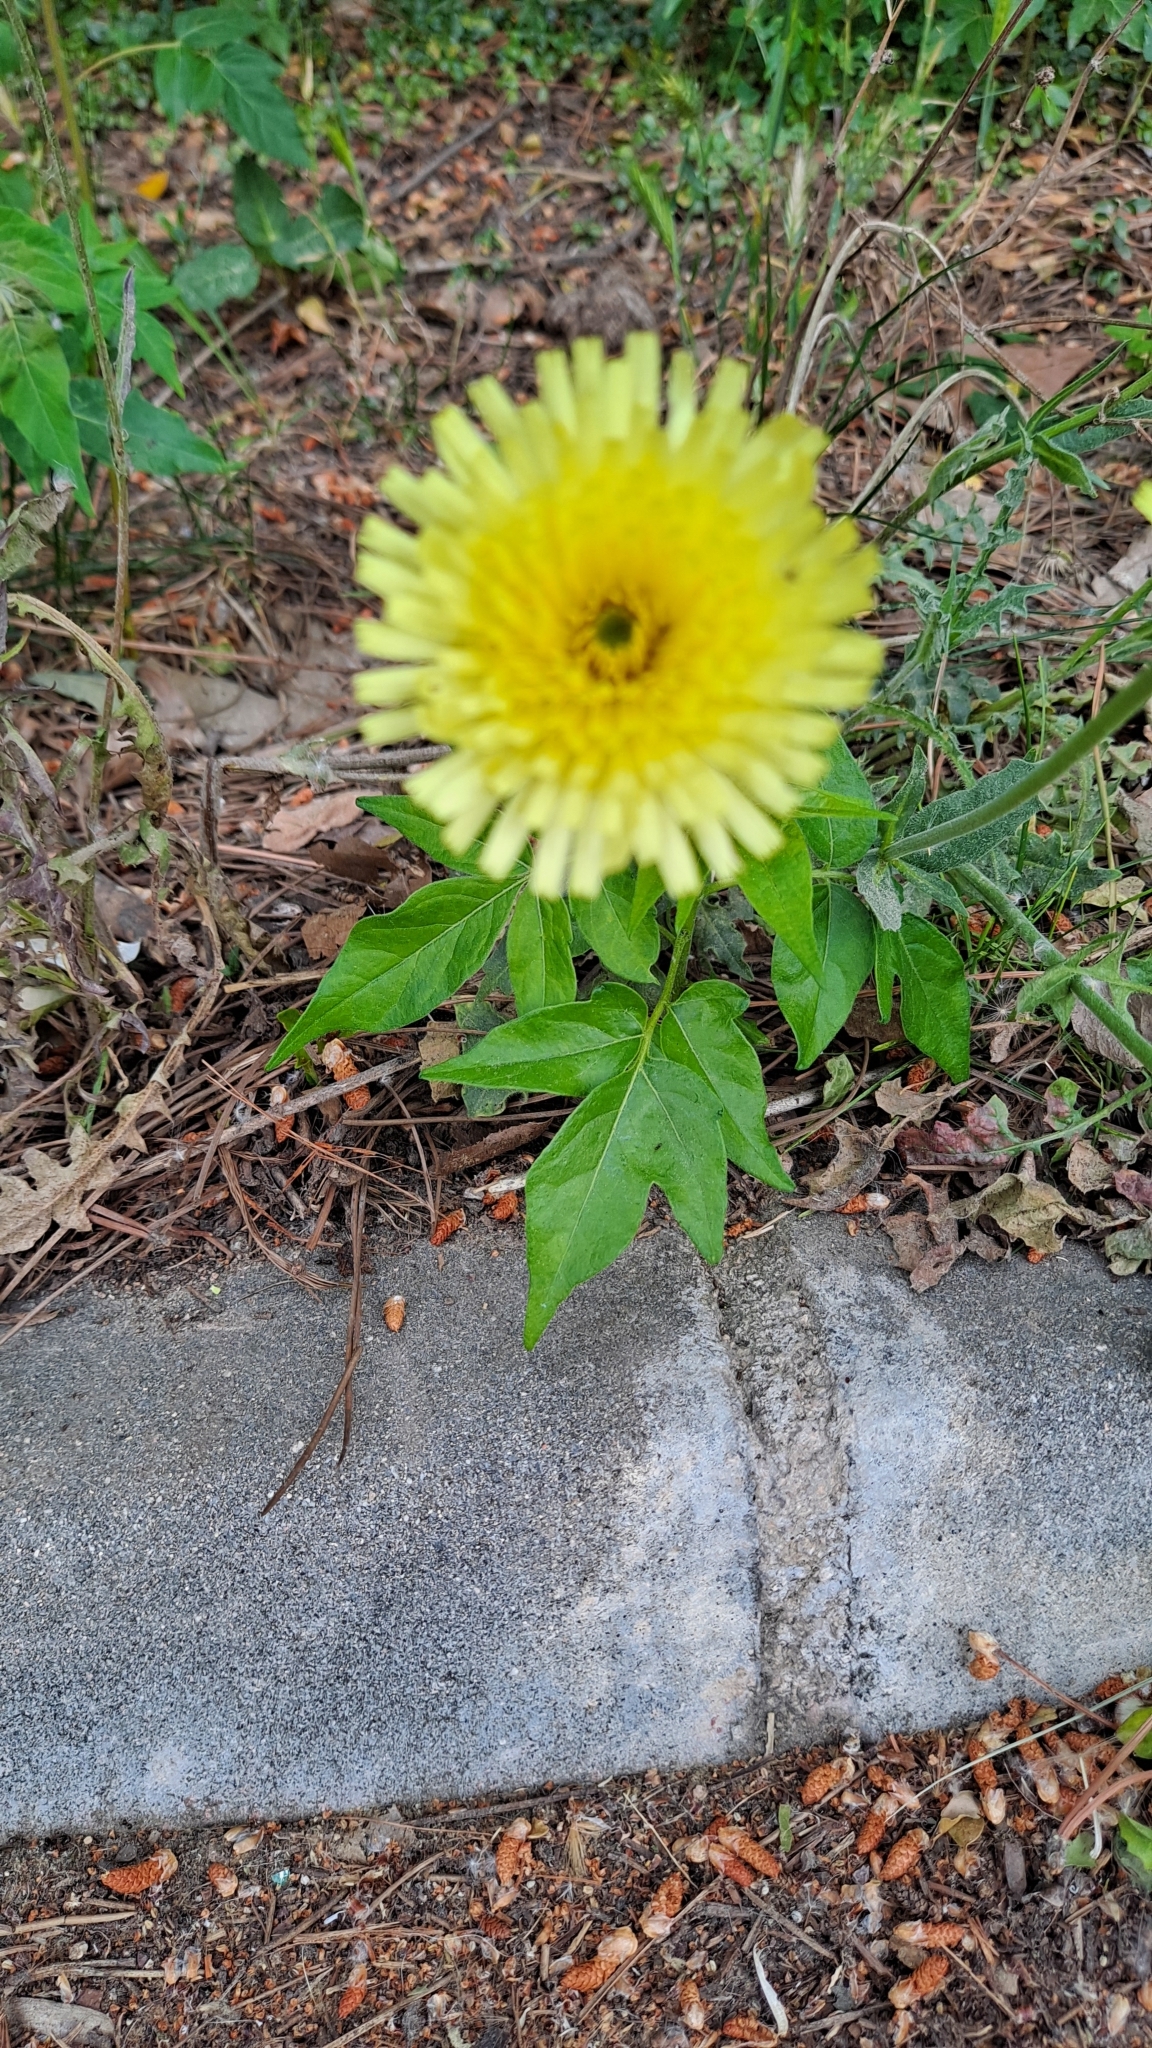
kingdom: Plantae
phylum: Tracheophyta
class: Magnoliopsida
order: Asterales
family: Asteraceae
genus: Urospermum
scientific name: Urospermum dalechampii
